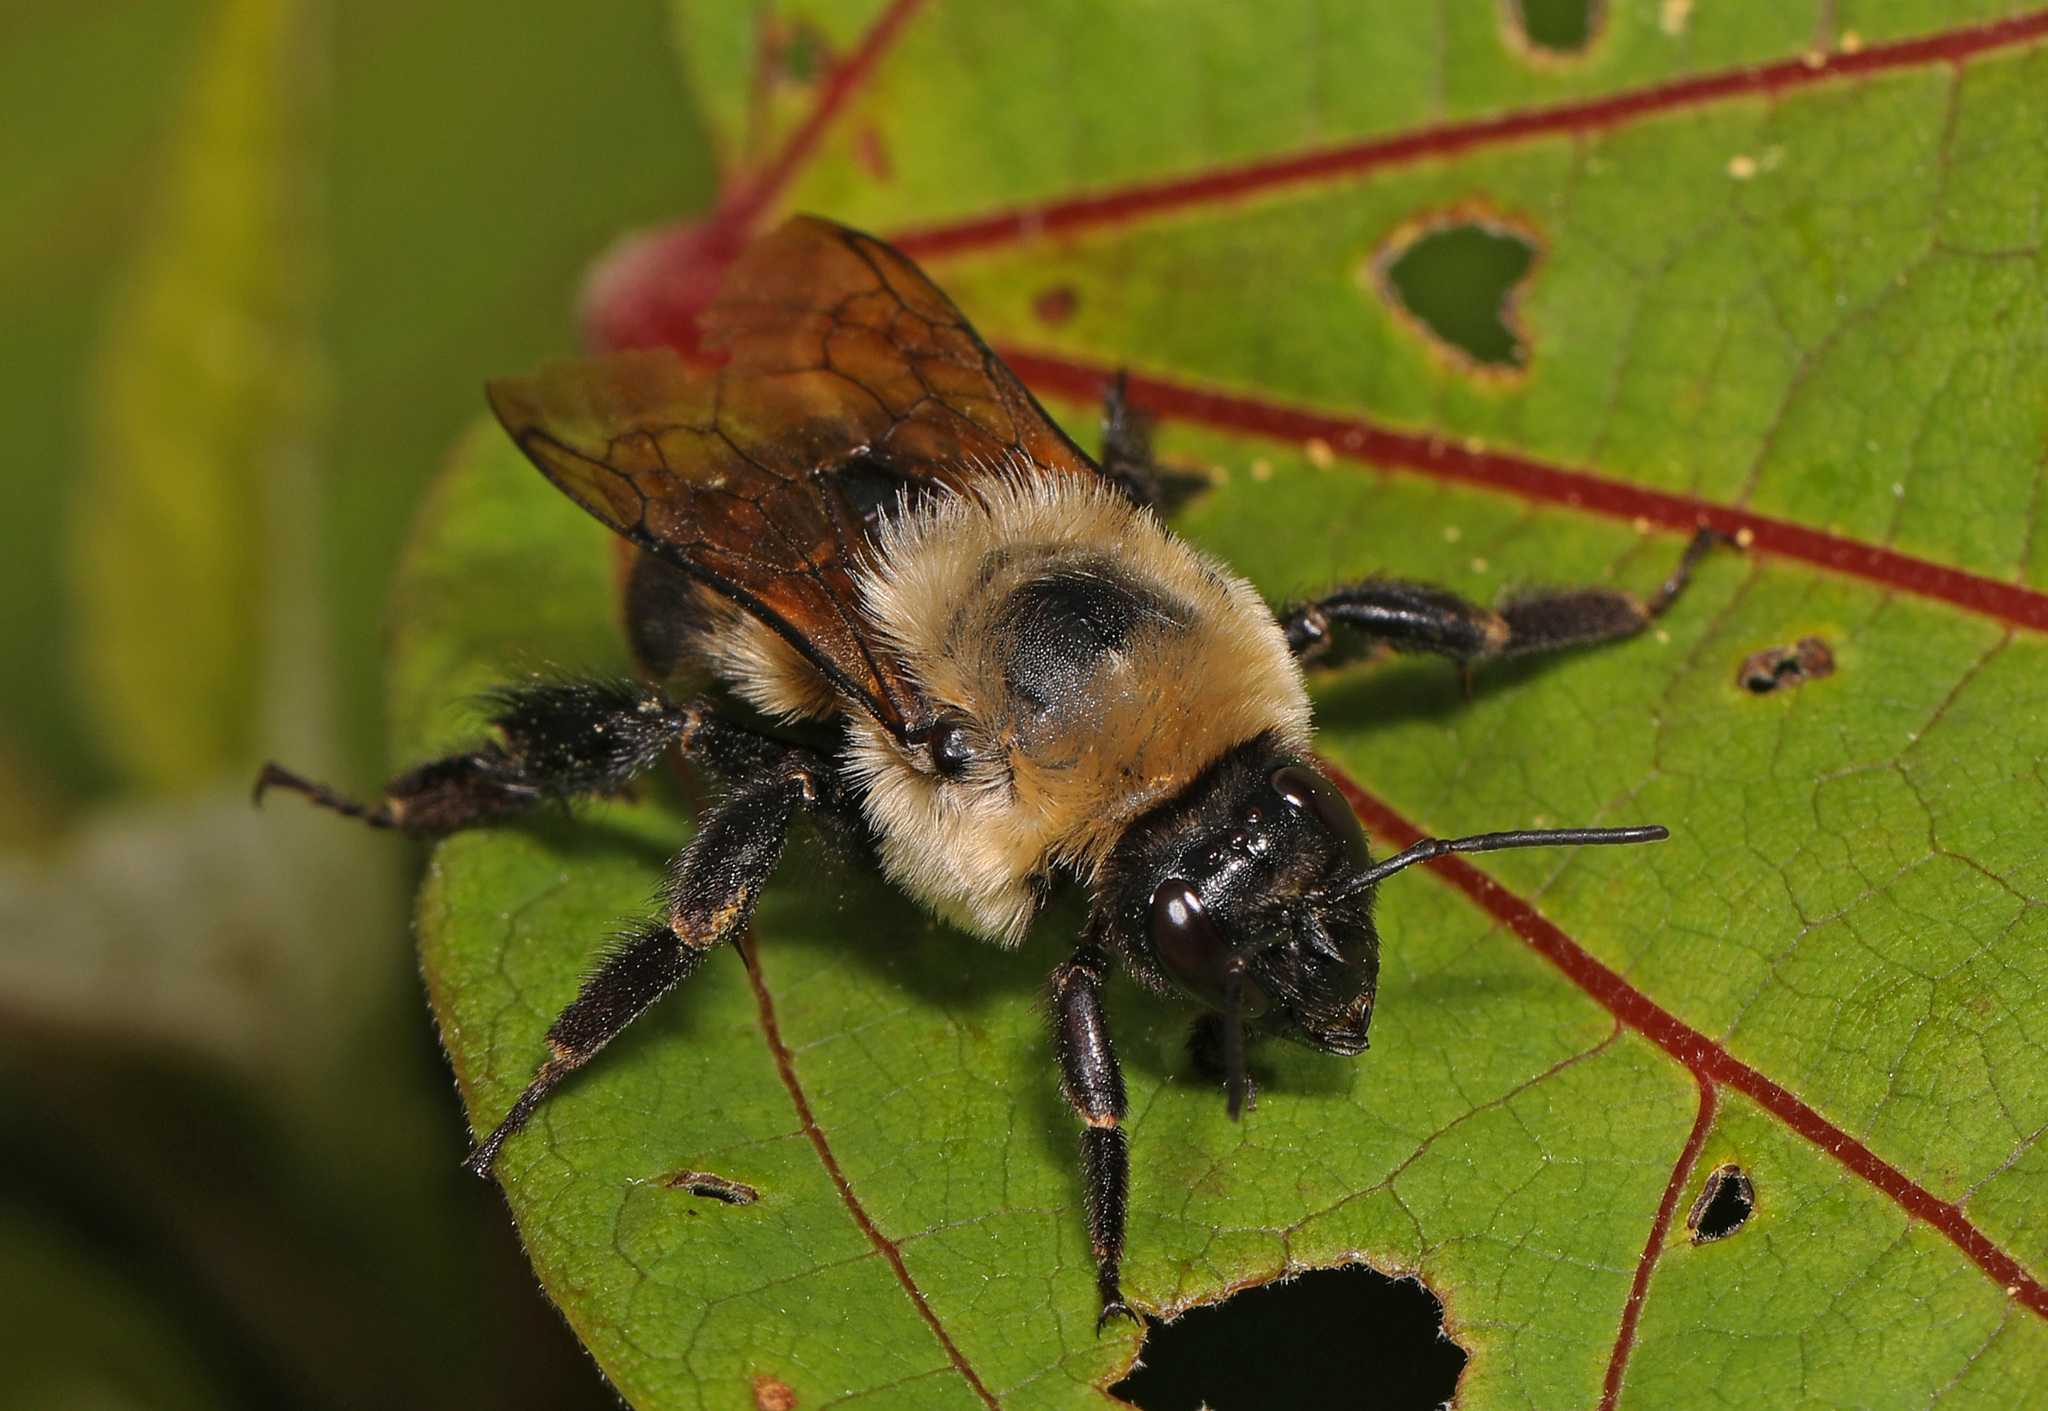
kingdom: Animalia
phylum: Arthropoda
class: Insecta
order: Hymenoptera
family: Apidae
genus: Bombus
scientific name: Bombus griseocollis
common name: Brown-belted bumble bee
